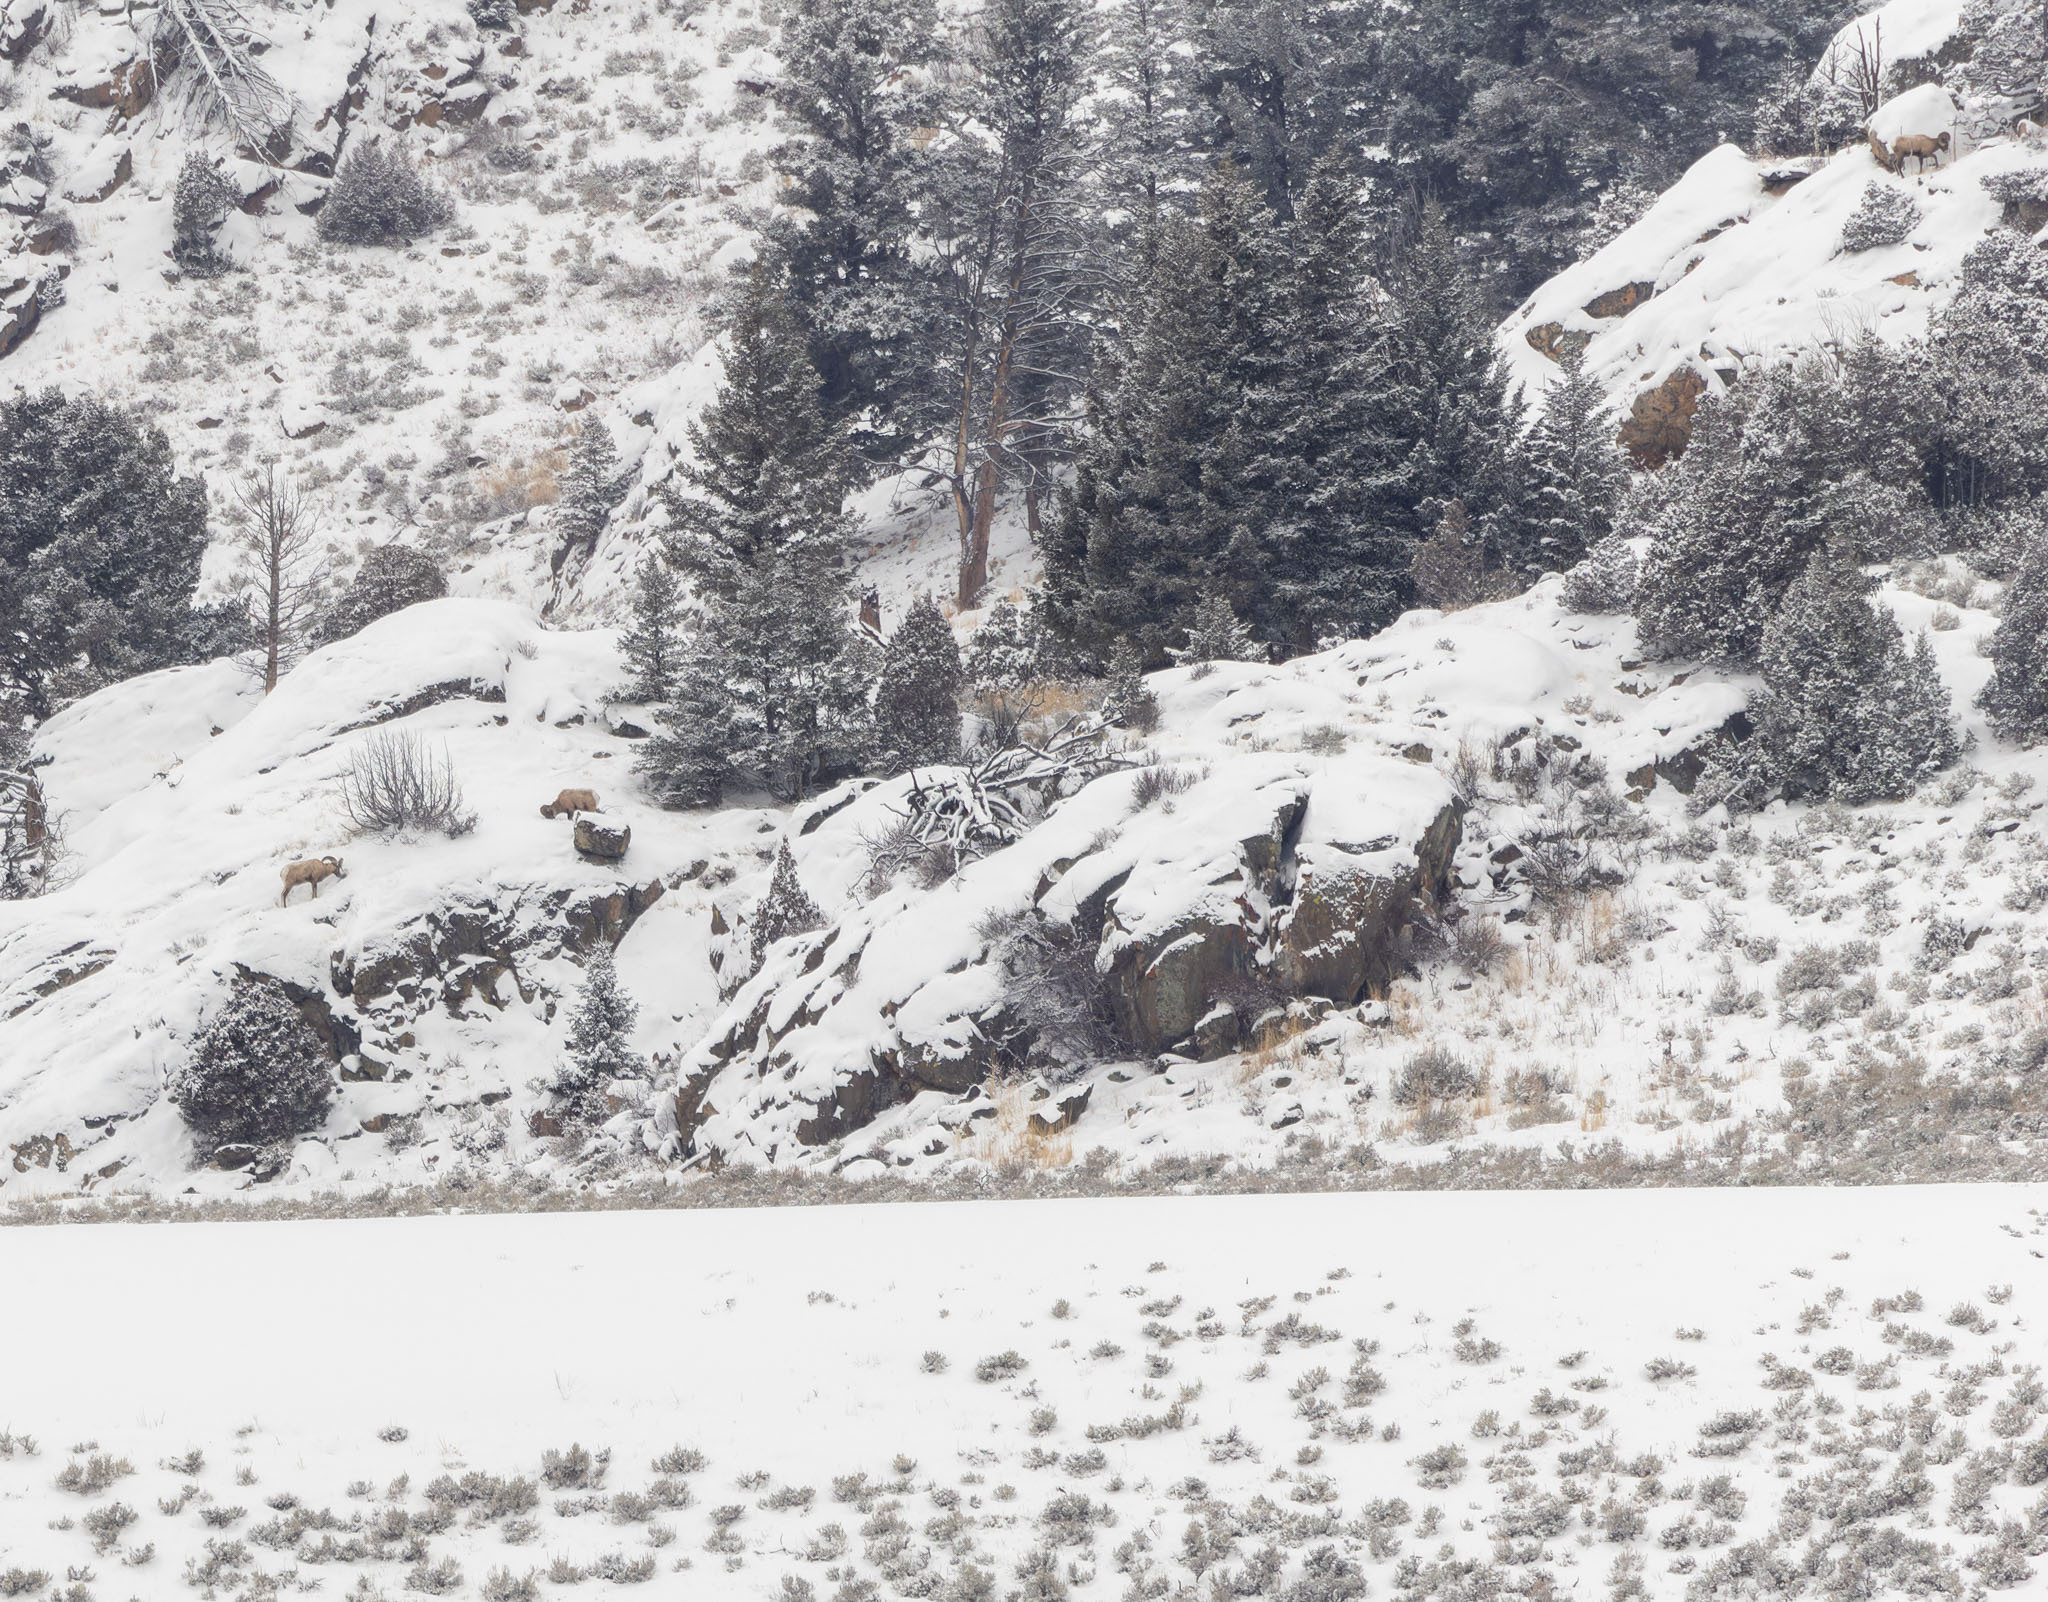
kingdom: Animalia
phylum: Chordata
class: Mammalia
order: Artiodactyla
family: Bovidae
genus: Ovis
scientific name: Ovis canadensis
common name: Bighorn sheep
